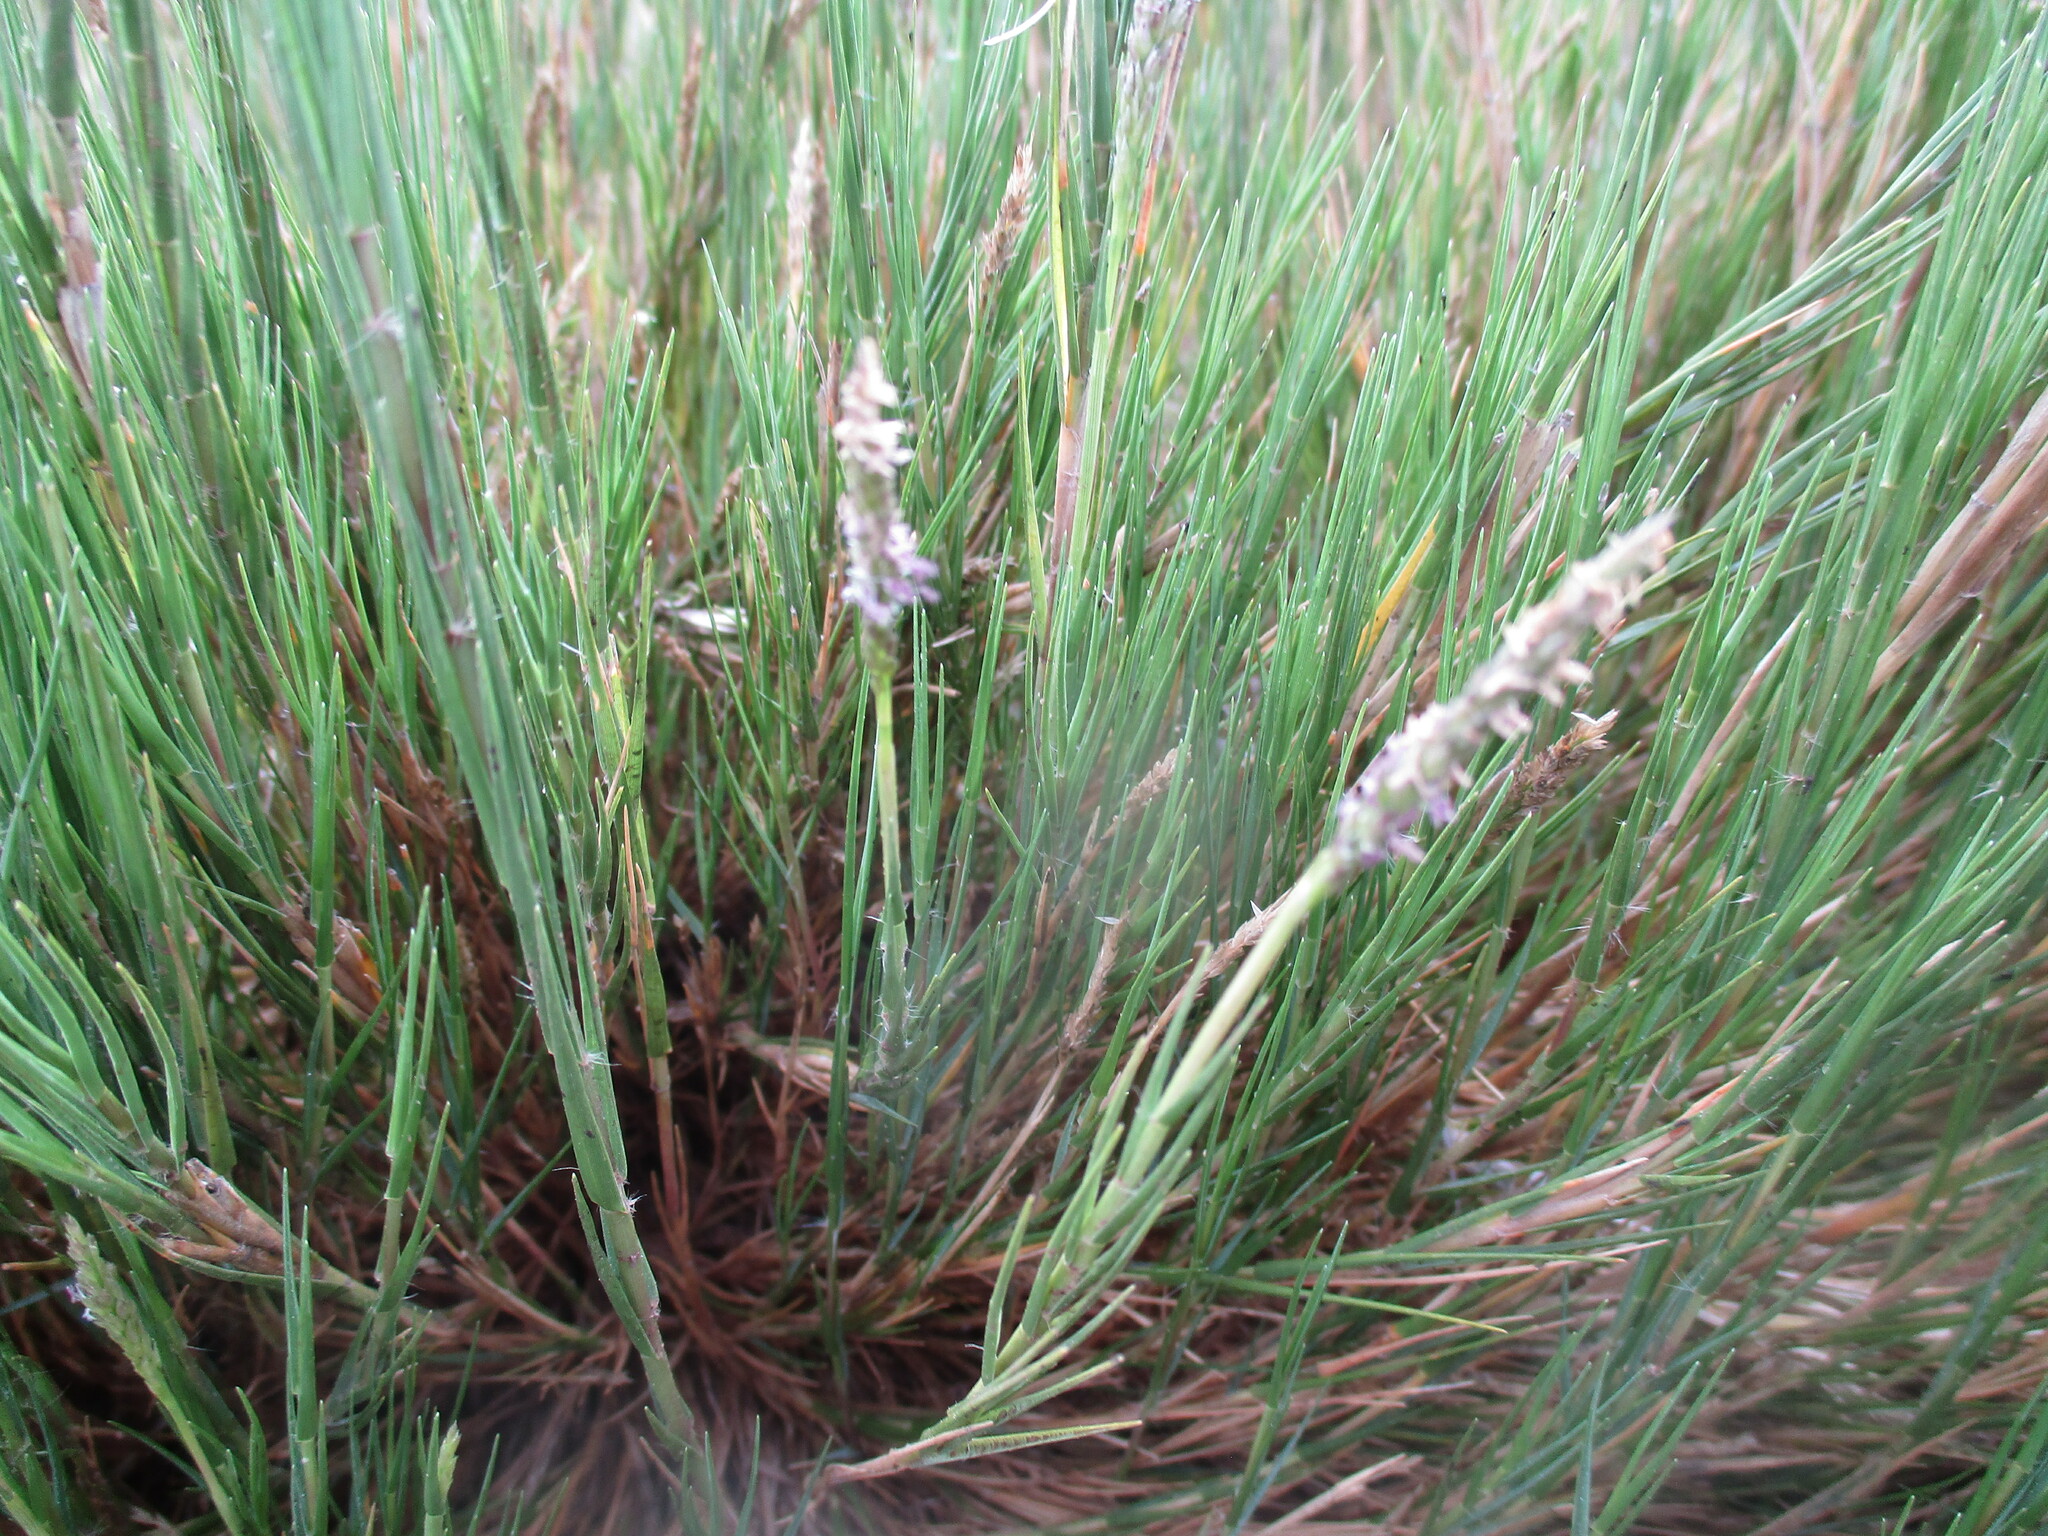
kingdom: Plantae
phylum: Tracheophyta
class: Liliopsida
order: Poales
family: Poaceae
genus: Odyssea
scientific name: Odyssea paucinervis
